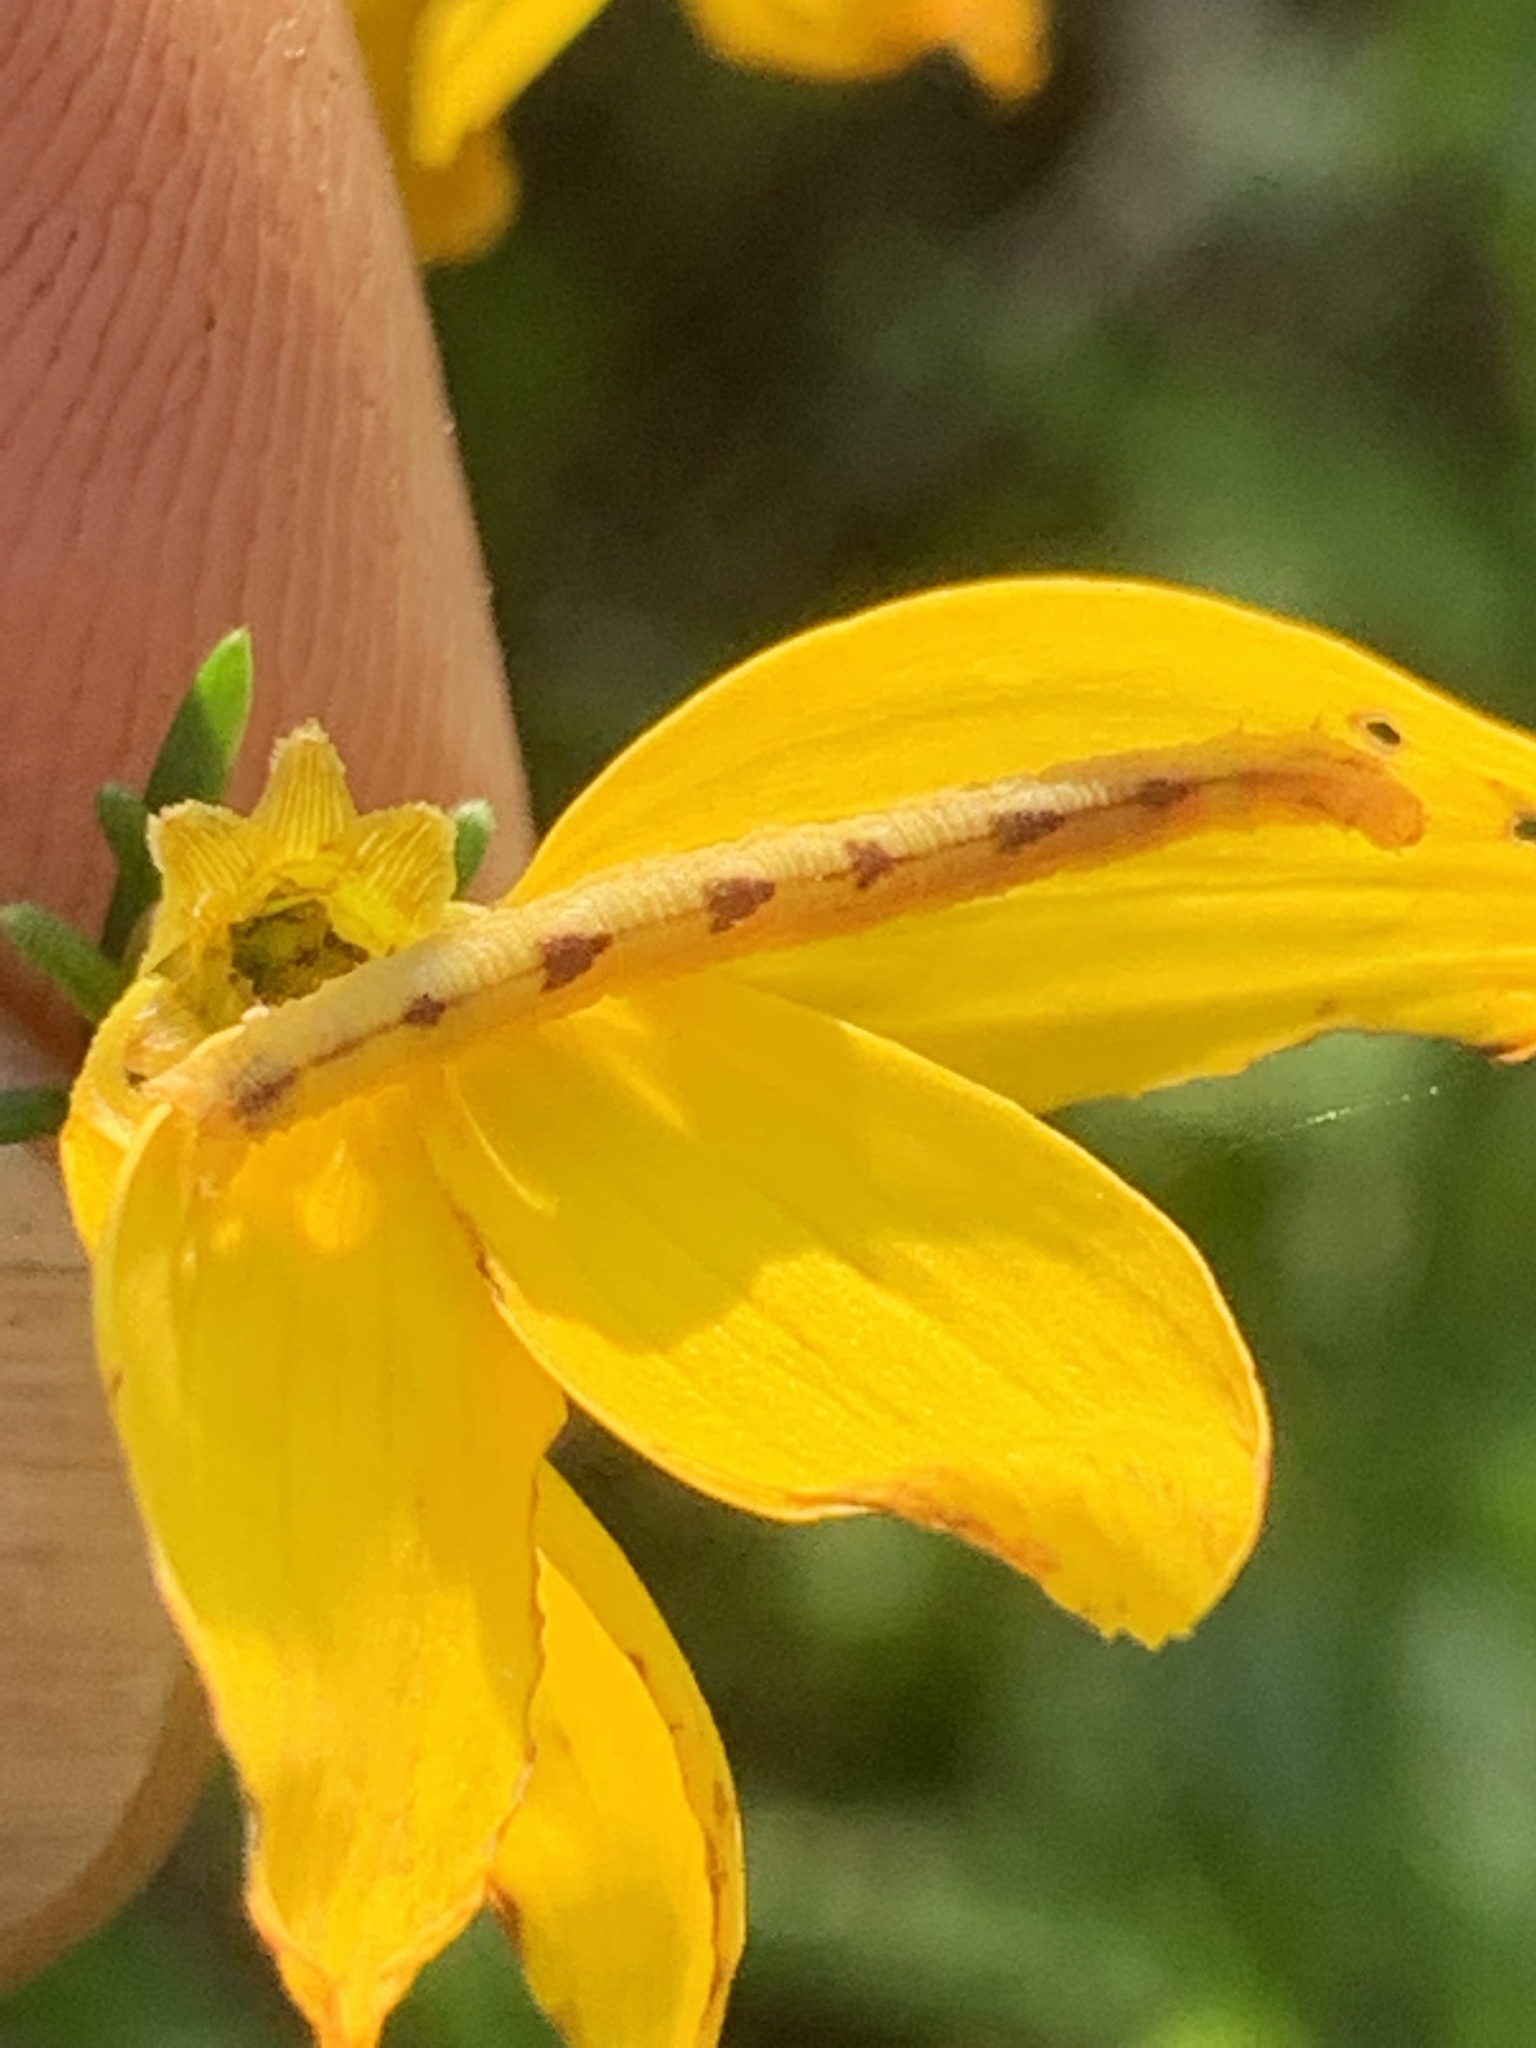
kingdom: Animalia
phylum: Arthropoda
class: Insecta
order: Lepidoptera
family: Geometridae
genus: Eupithecia
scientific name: Eupithecia miserulata
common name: Common eupithecia
